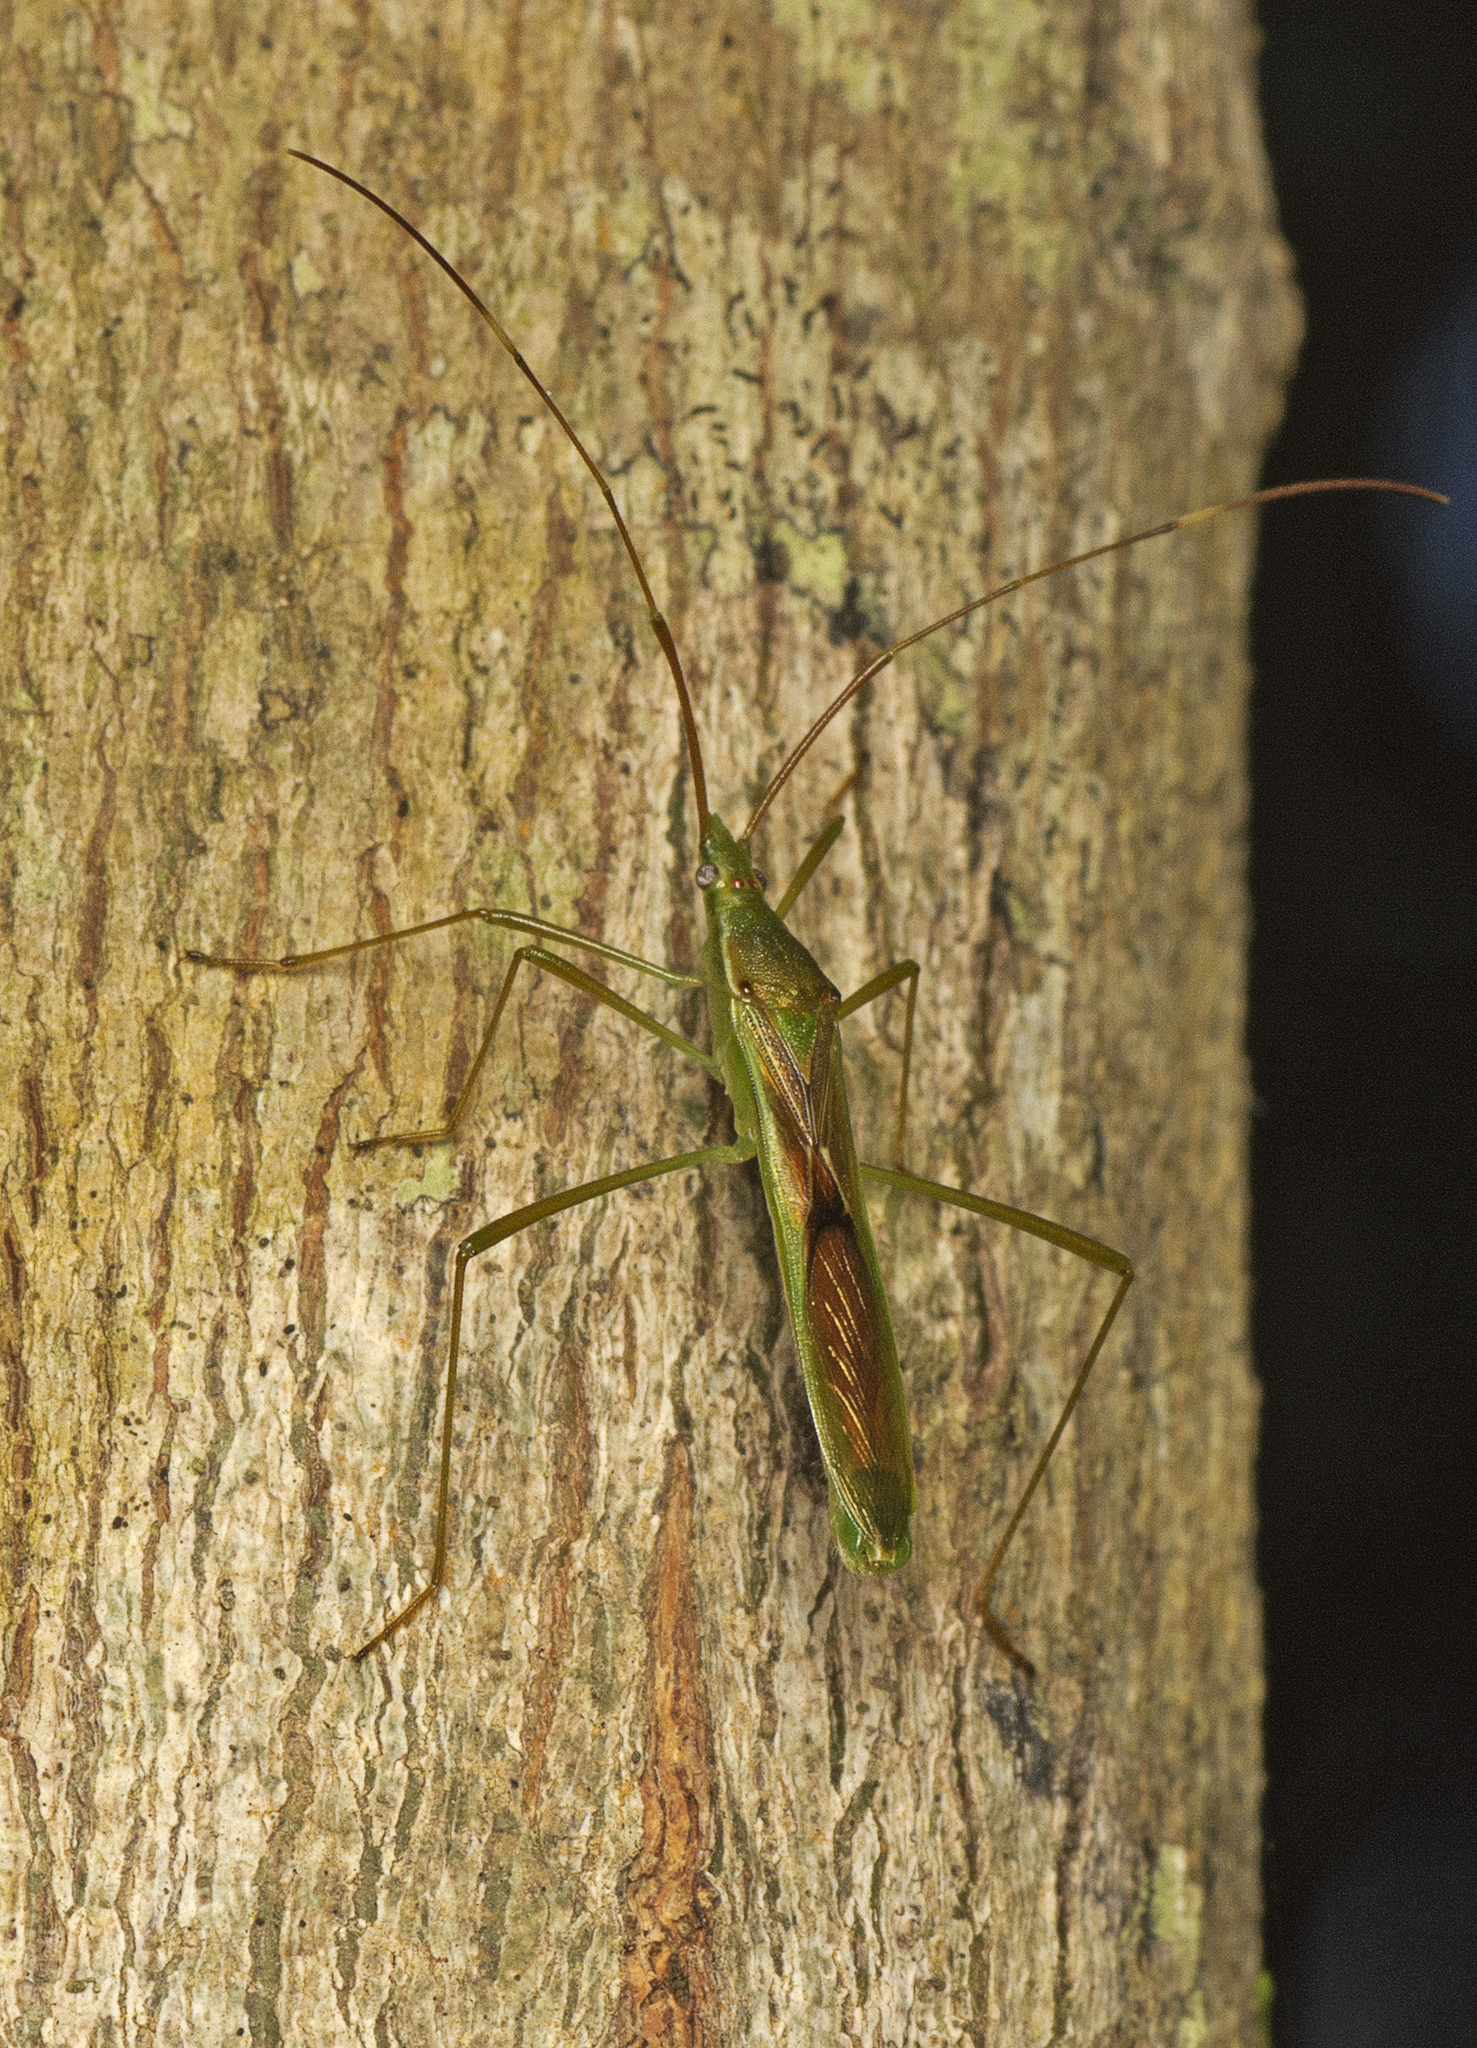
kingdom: Animalia
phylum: Arthropoda
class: Insecta
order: Hemiptera
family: Alydidae
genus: Leptocorisa
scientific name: Leptocorisa acuta
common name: Gandhi bug
